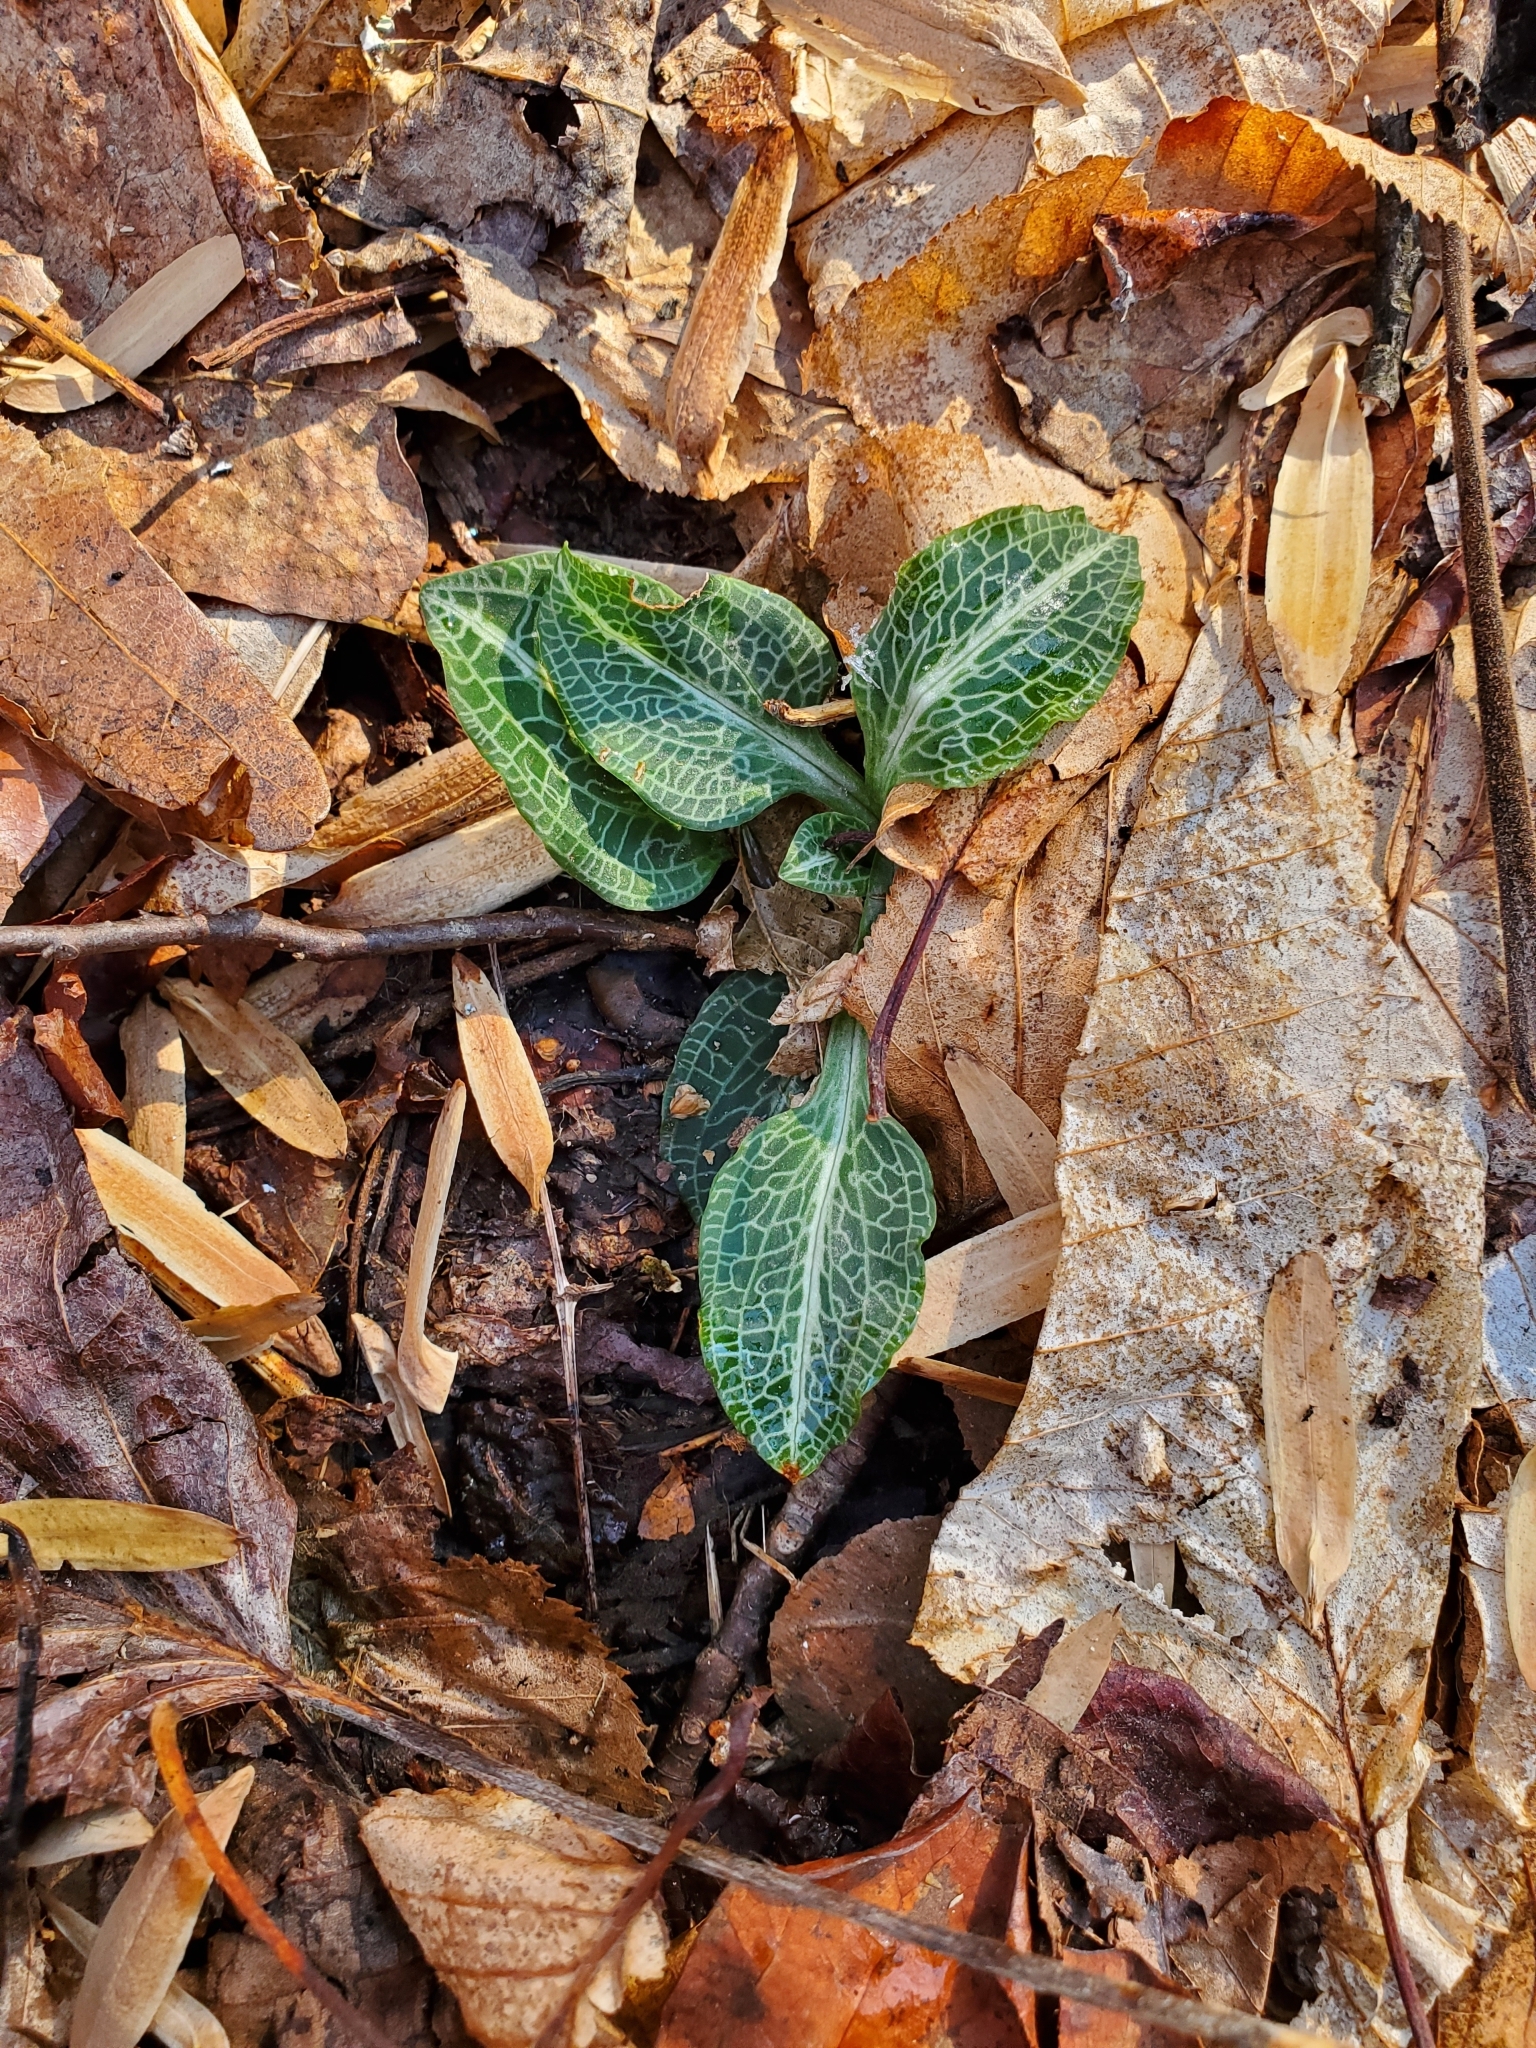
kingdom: Plantae
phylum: Tracheophyta
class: Liliopsida
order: Asparagales
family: Orchidaceae
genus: Goodyera
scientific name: Goodyera pubescens
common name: Downy rattlesnake-plantain
